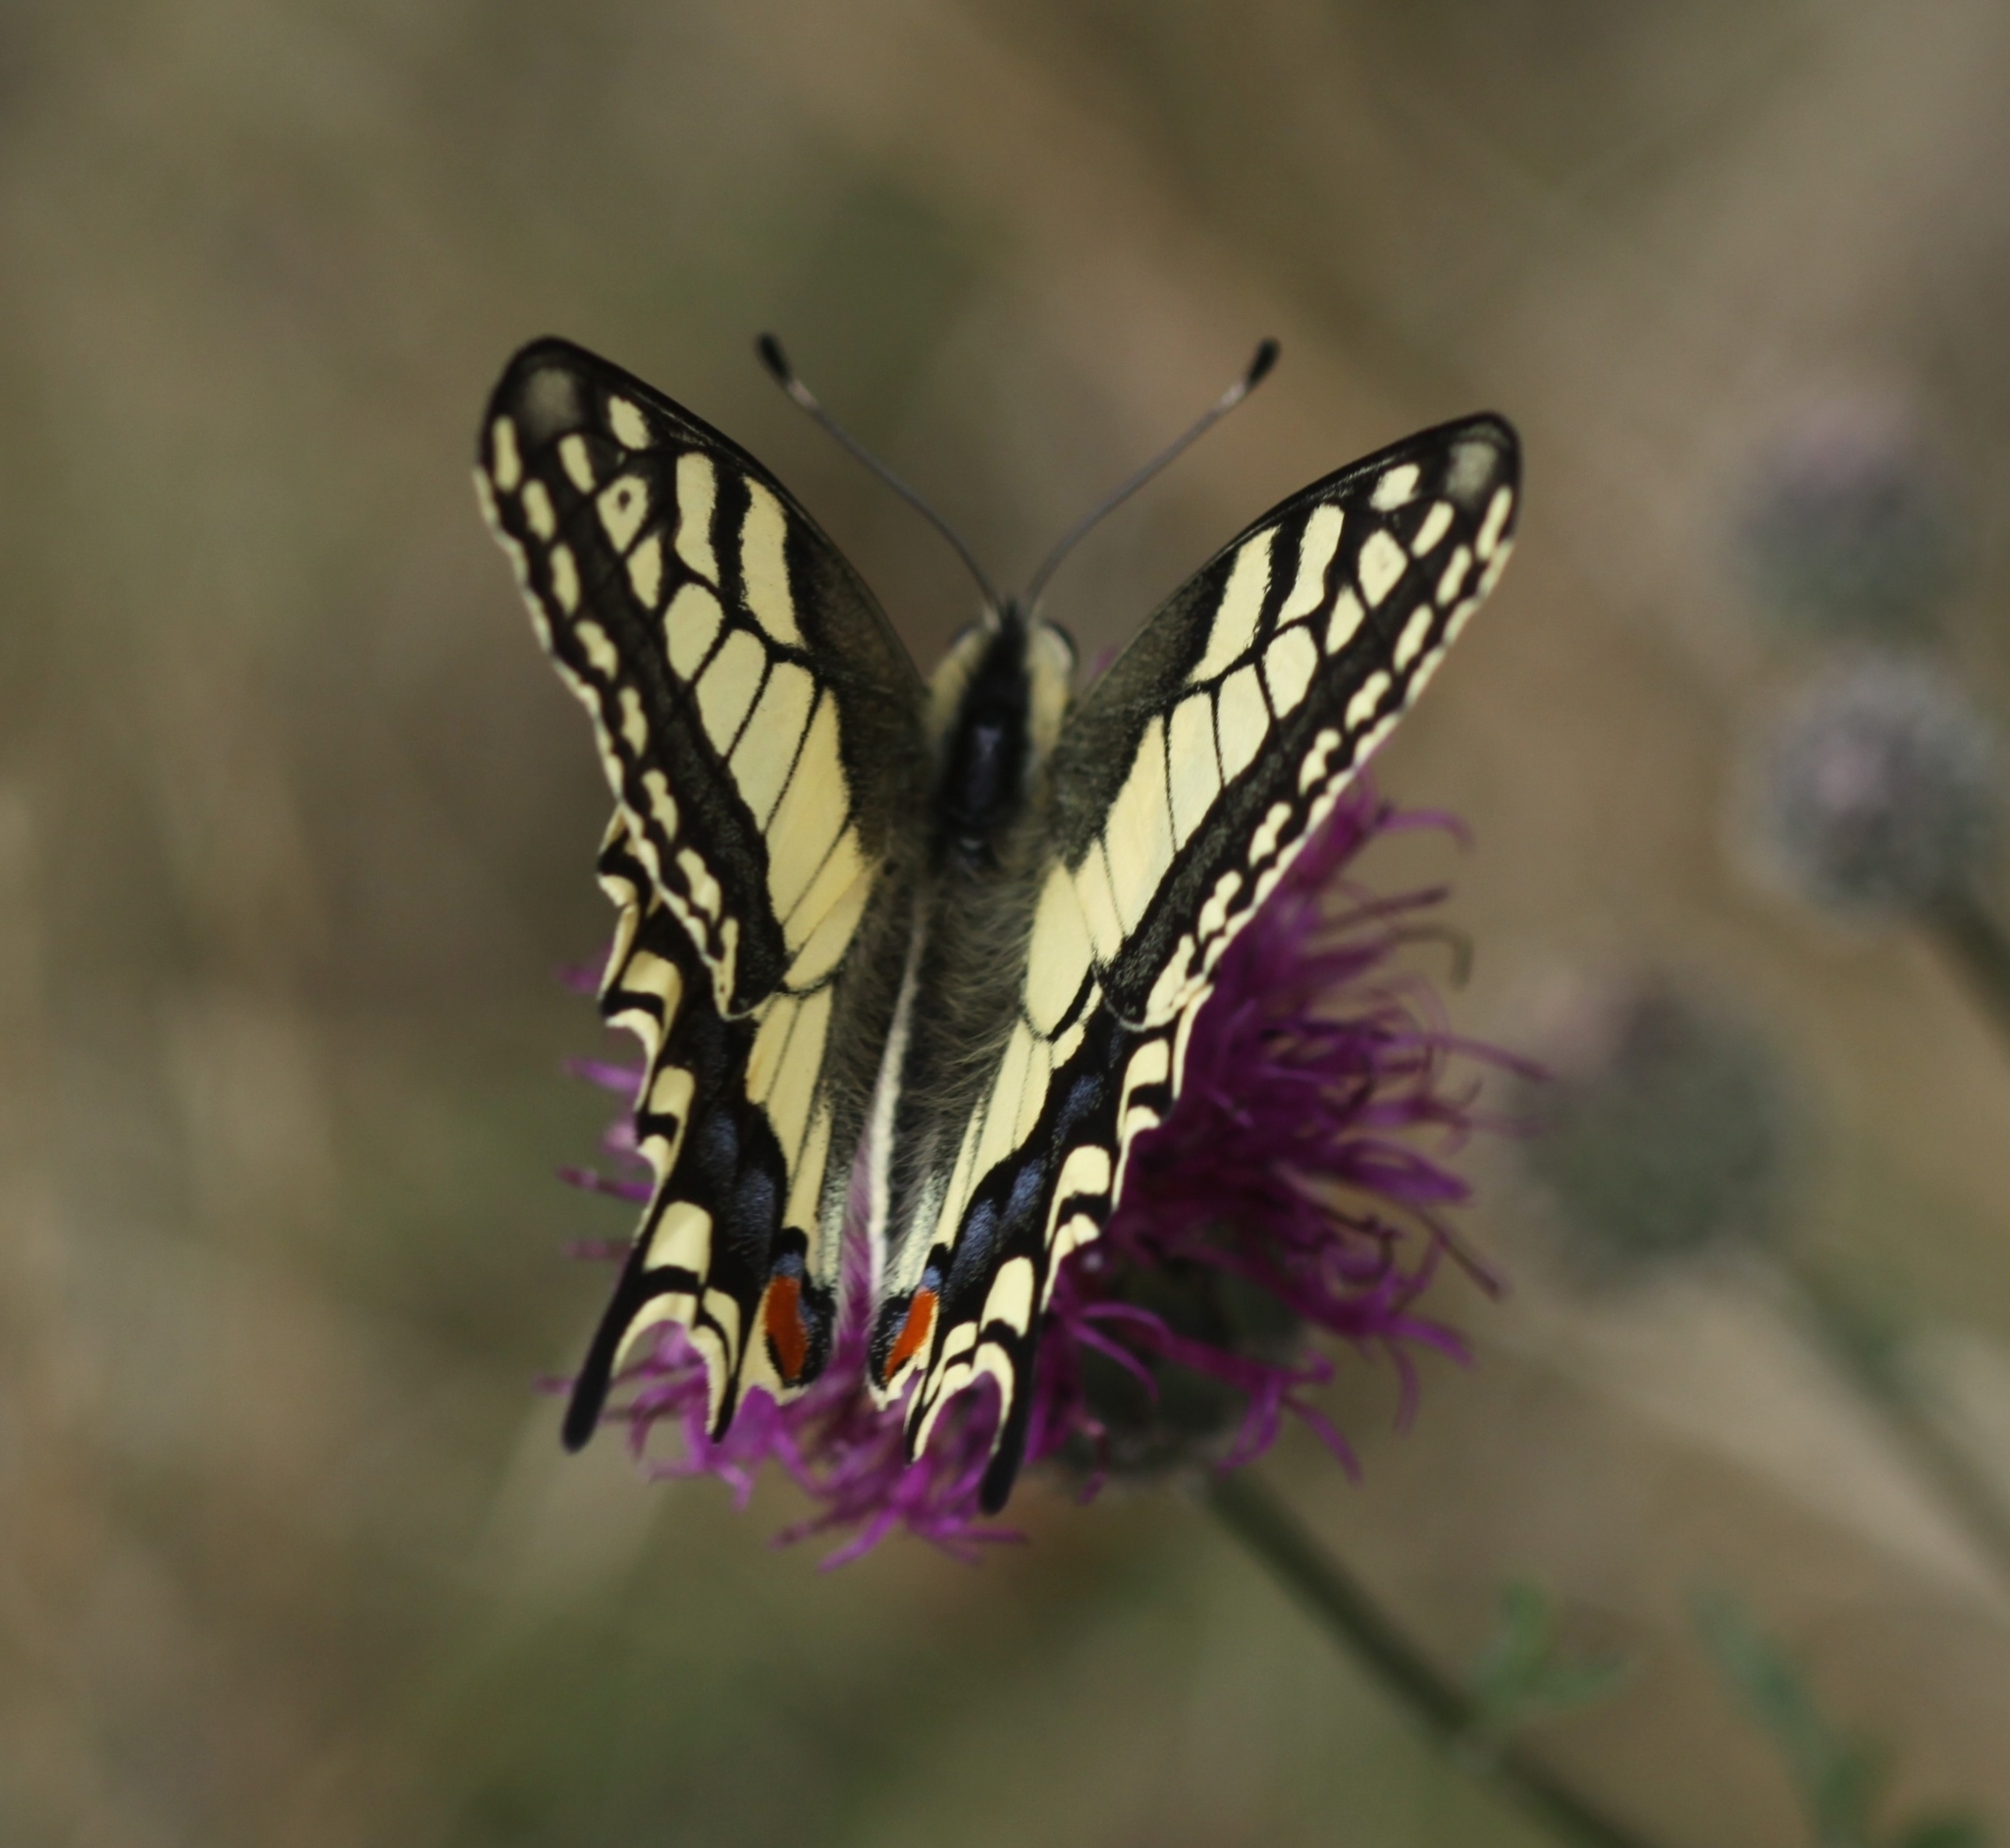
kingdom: Animalia
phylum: Arthropoda
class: Insecta
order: Lepidoptera
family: Papilionidae
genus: Papilio
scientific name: Papilio machaon
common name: Swallowtail
